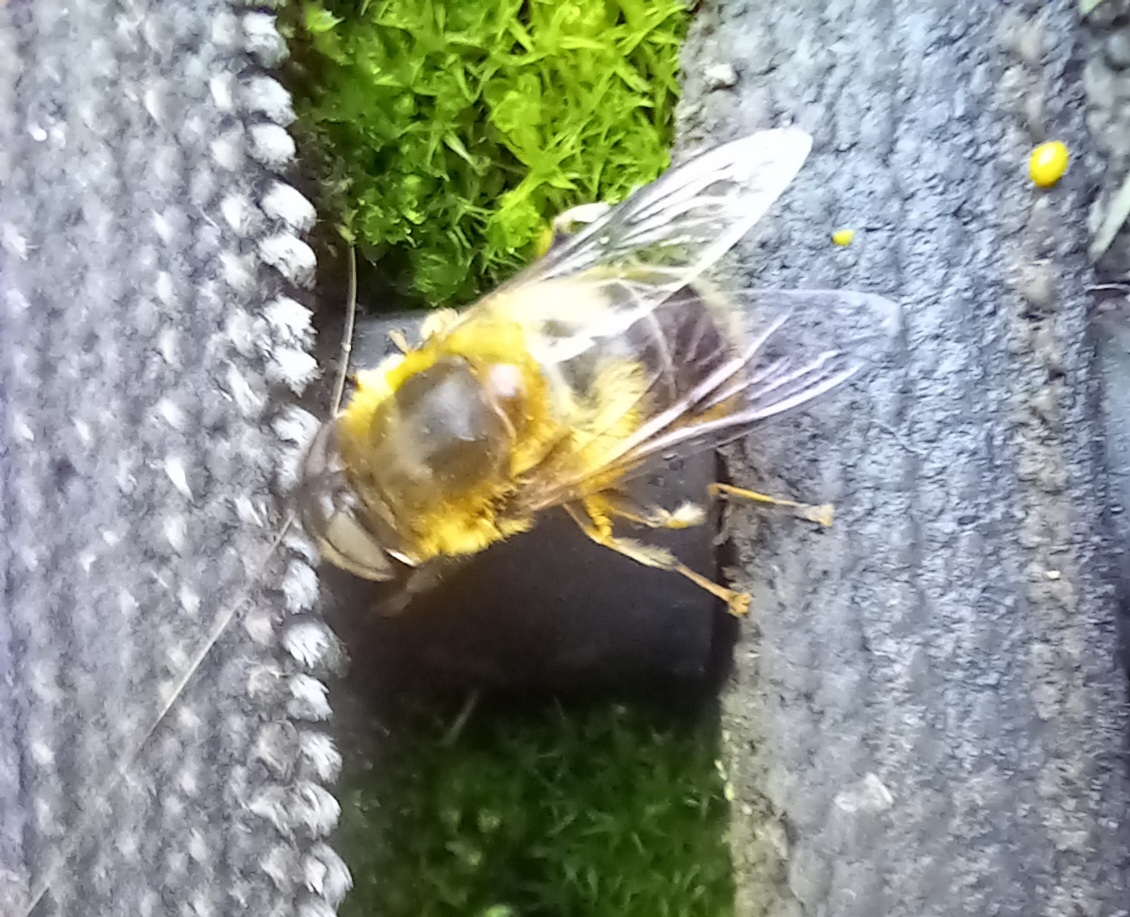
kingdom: Animalia
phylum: Arthropoda
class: Insecta
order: Diptera
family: Syrphidae
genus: Eristalis
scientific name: Eristalis pertinax
